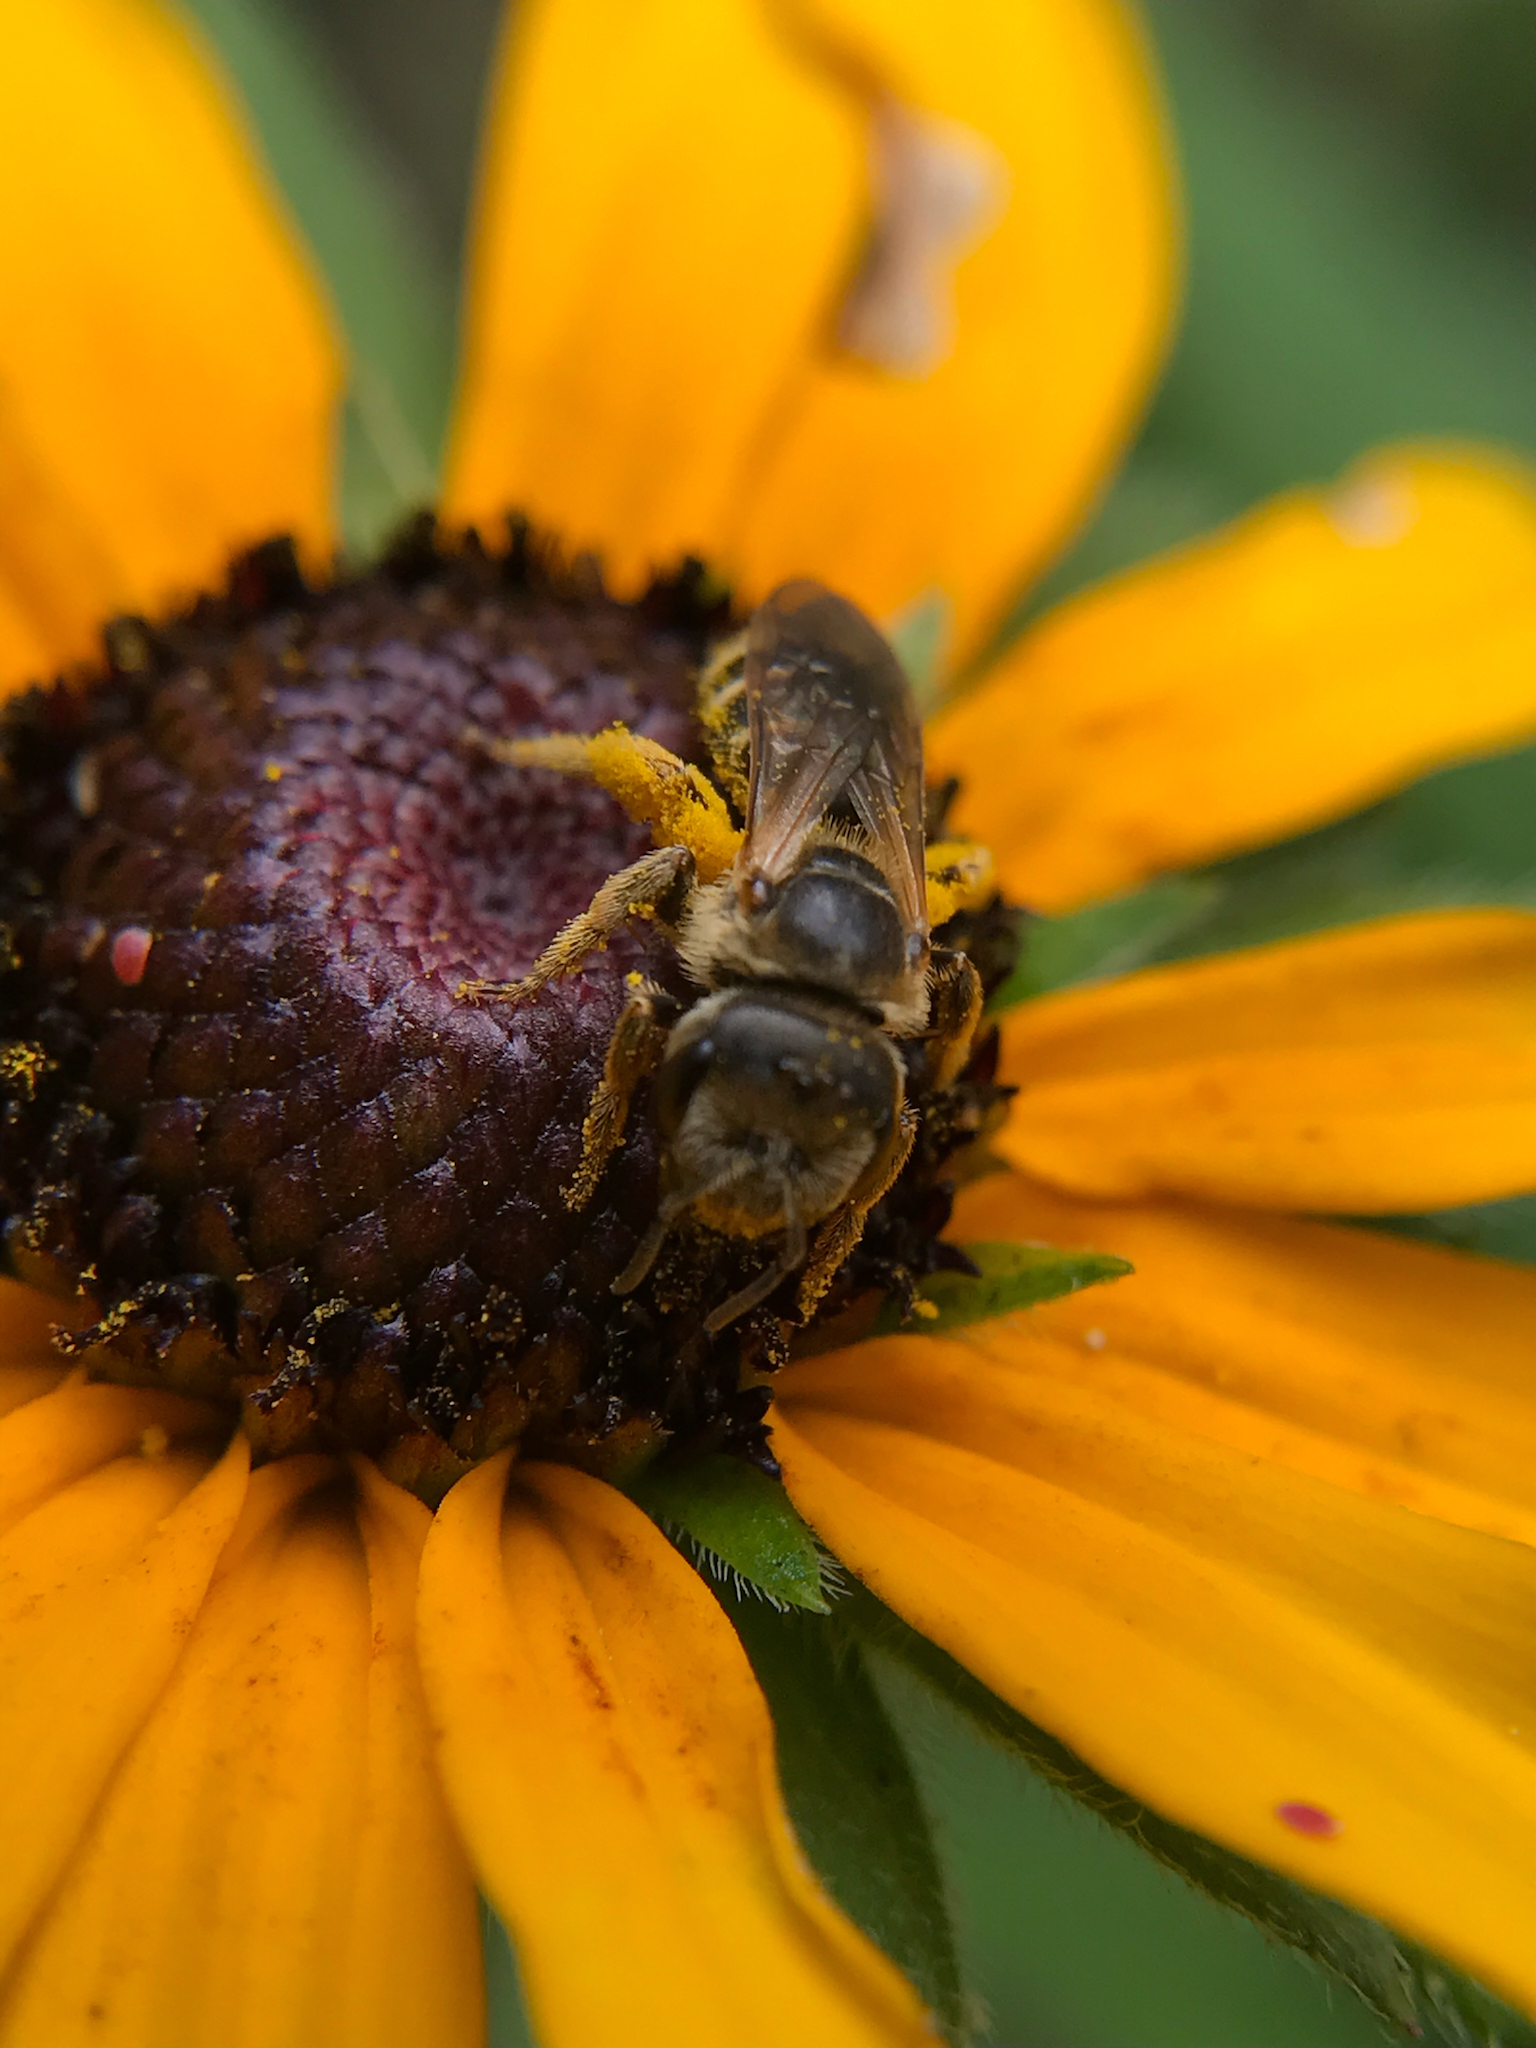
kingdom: Animalia
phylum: Arthropoda
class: Insecta
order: Hymenoptera
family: Halictidae
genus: Halictus
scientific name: Halictus ligatus
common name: Ligated furrow bee
